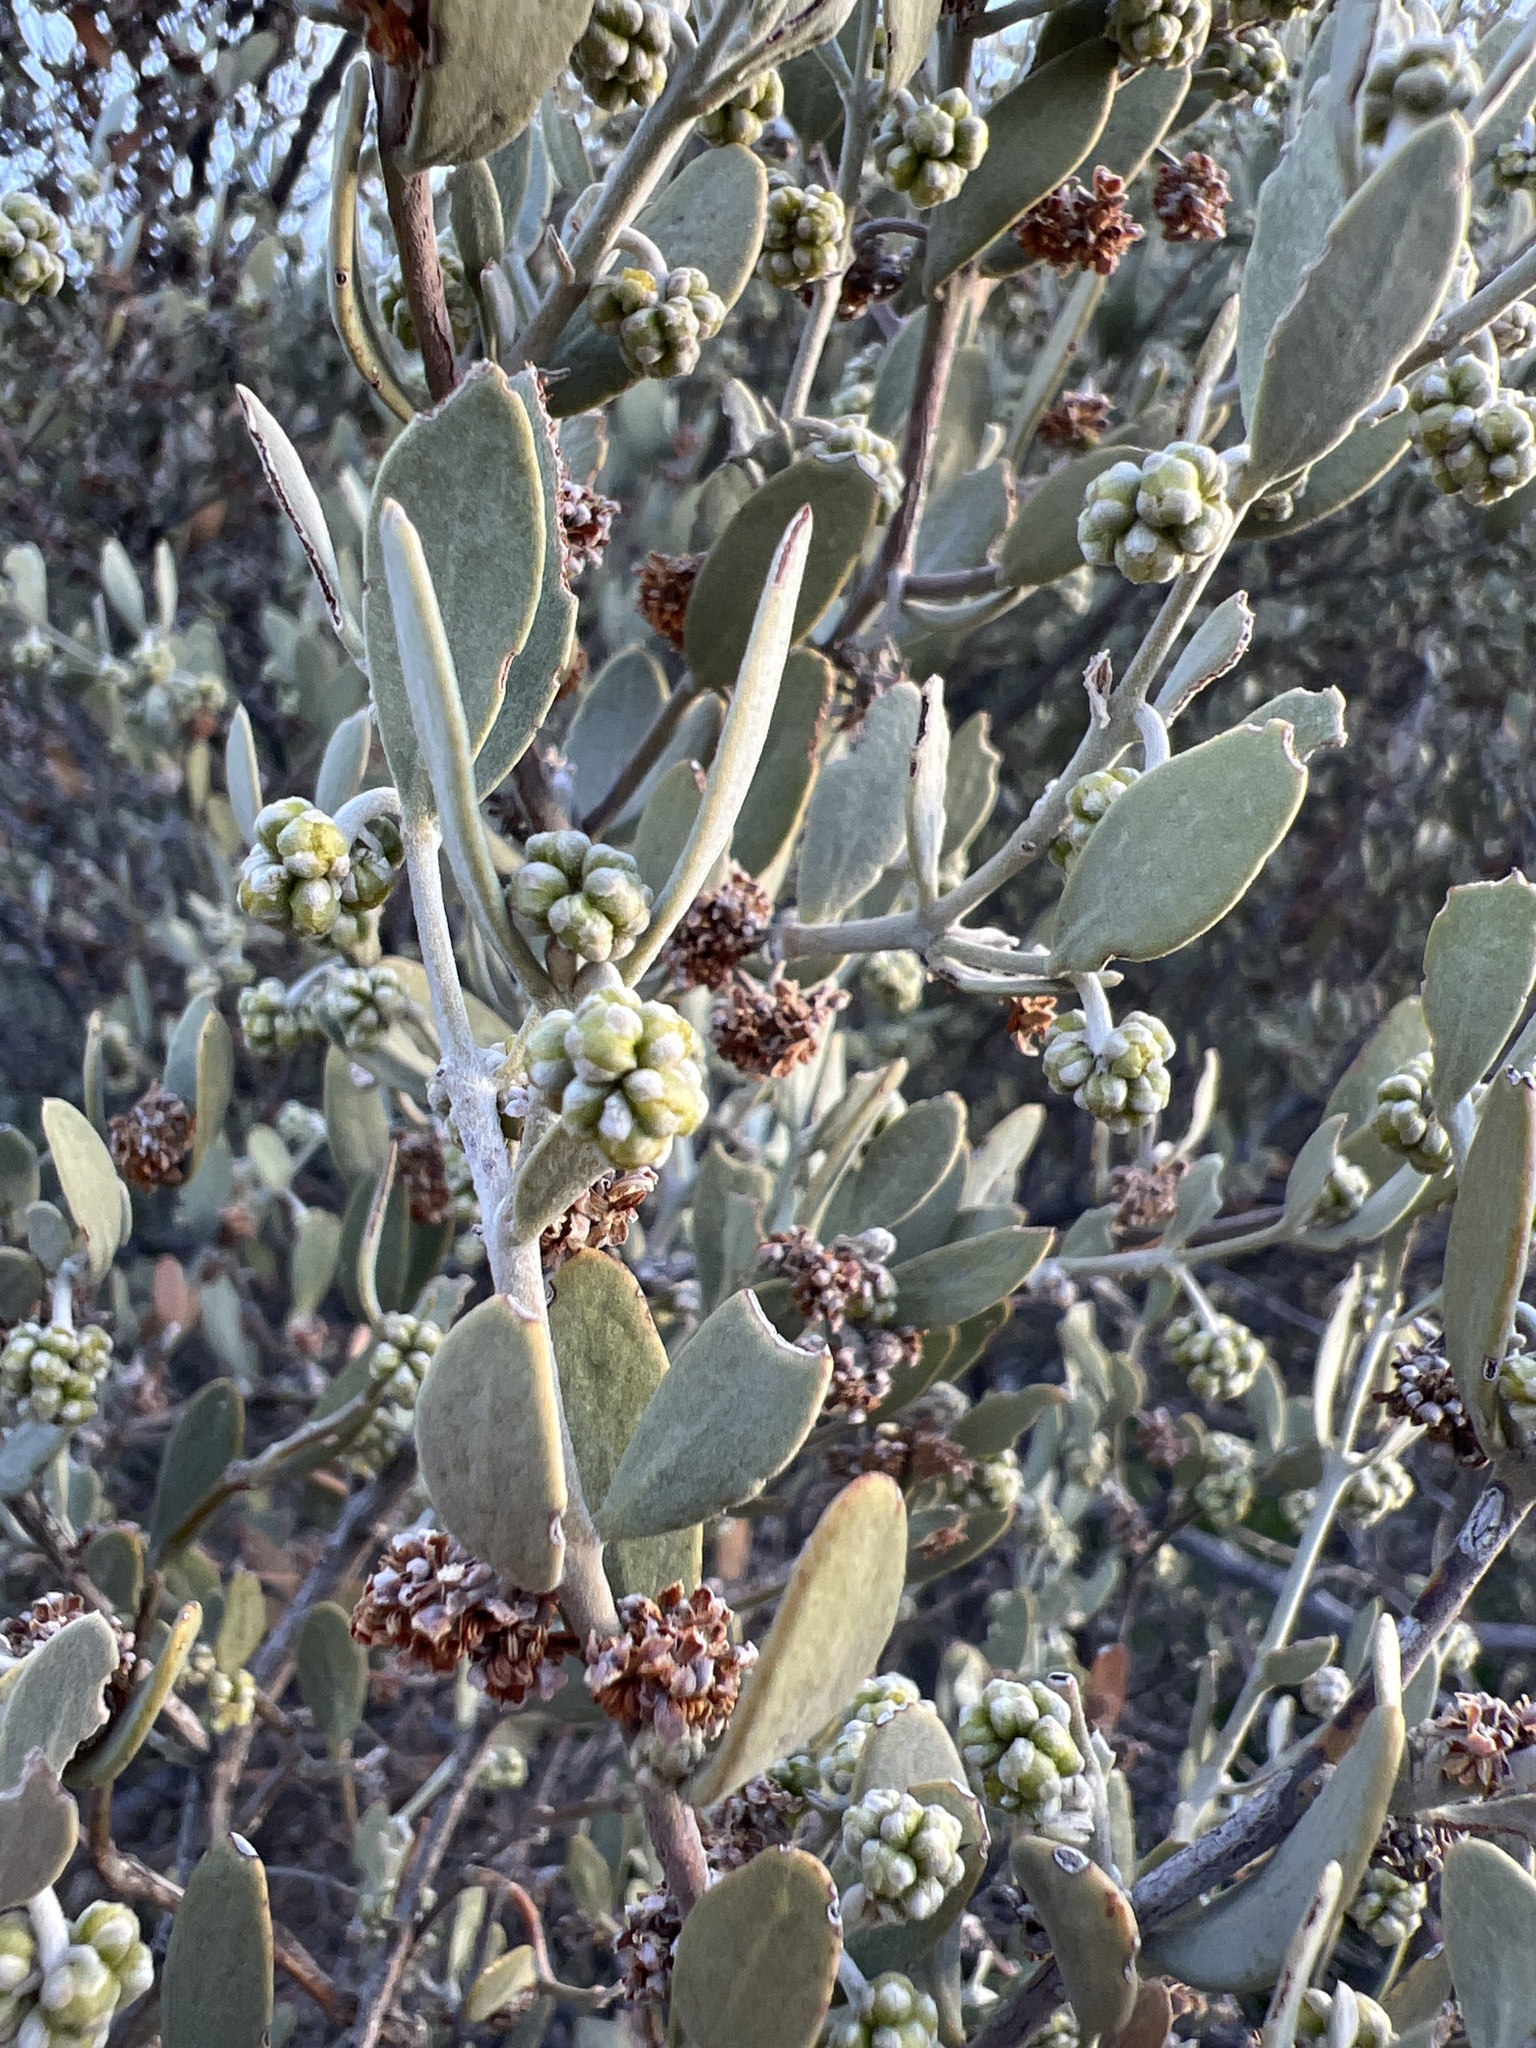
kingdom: Plantae
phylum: Tracheophyta
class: Magnoliopsida
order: Caryophyllales
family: Simmondsiaceae
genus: Simmondsia
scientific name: Simmondsia chinensis
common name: Jojoba
